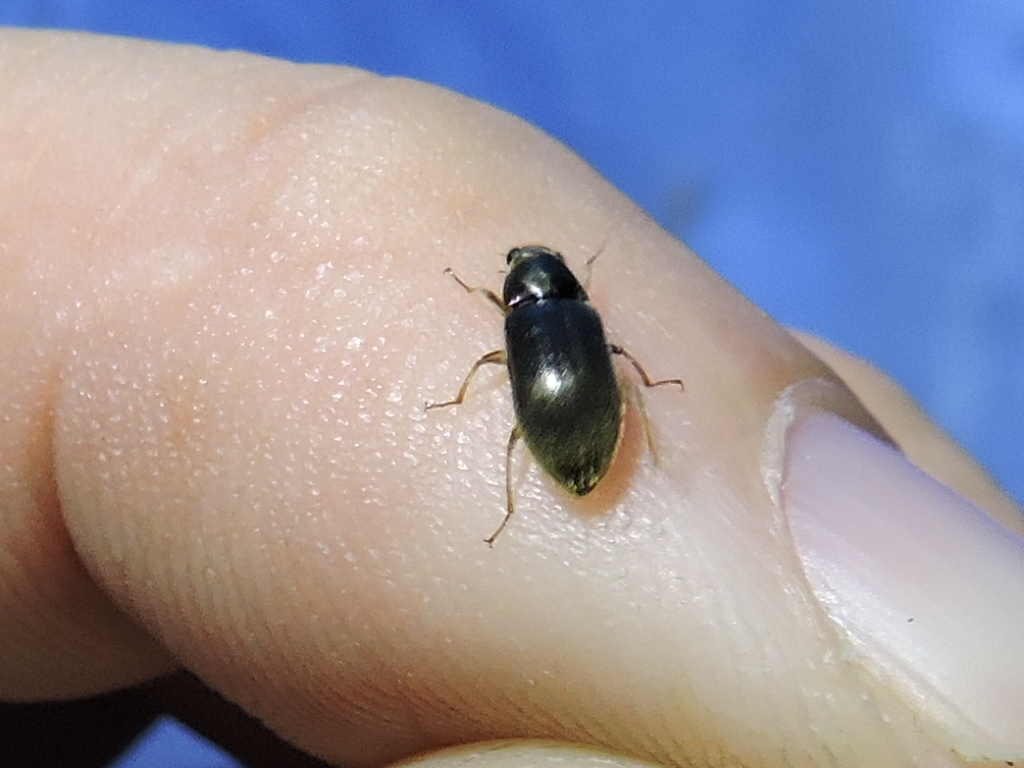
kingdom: Animalia
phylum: Arthropoda
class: Insecta
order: Coleoptera
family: Dryopidae
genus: Pelonomus
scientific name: Pelonomus obscurus
